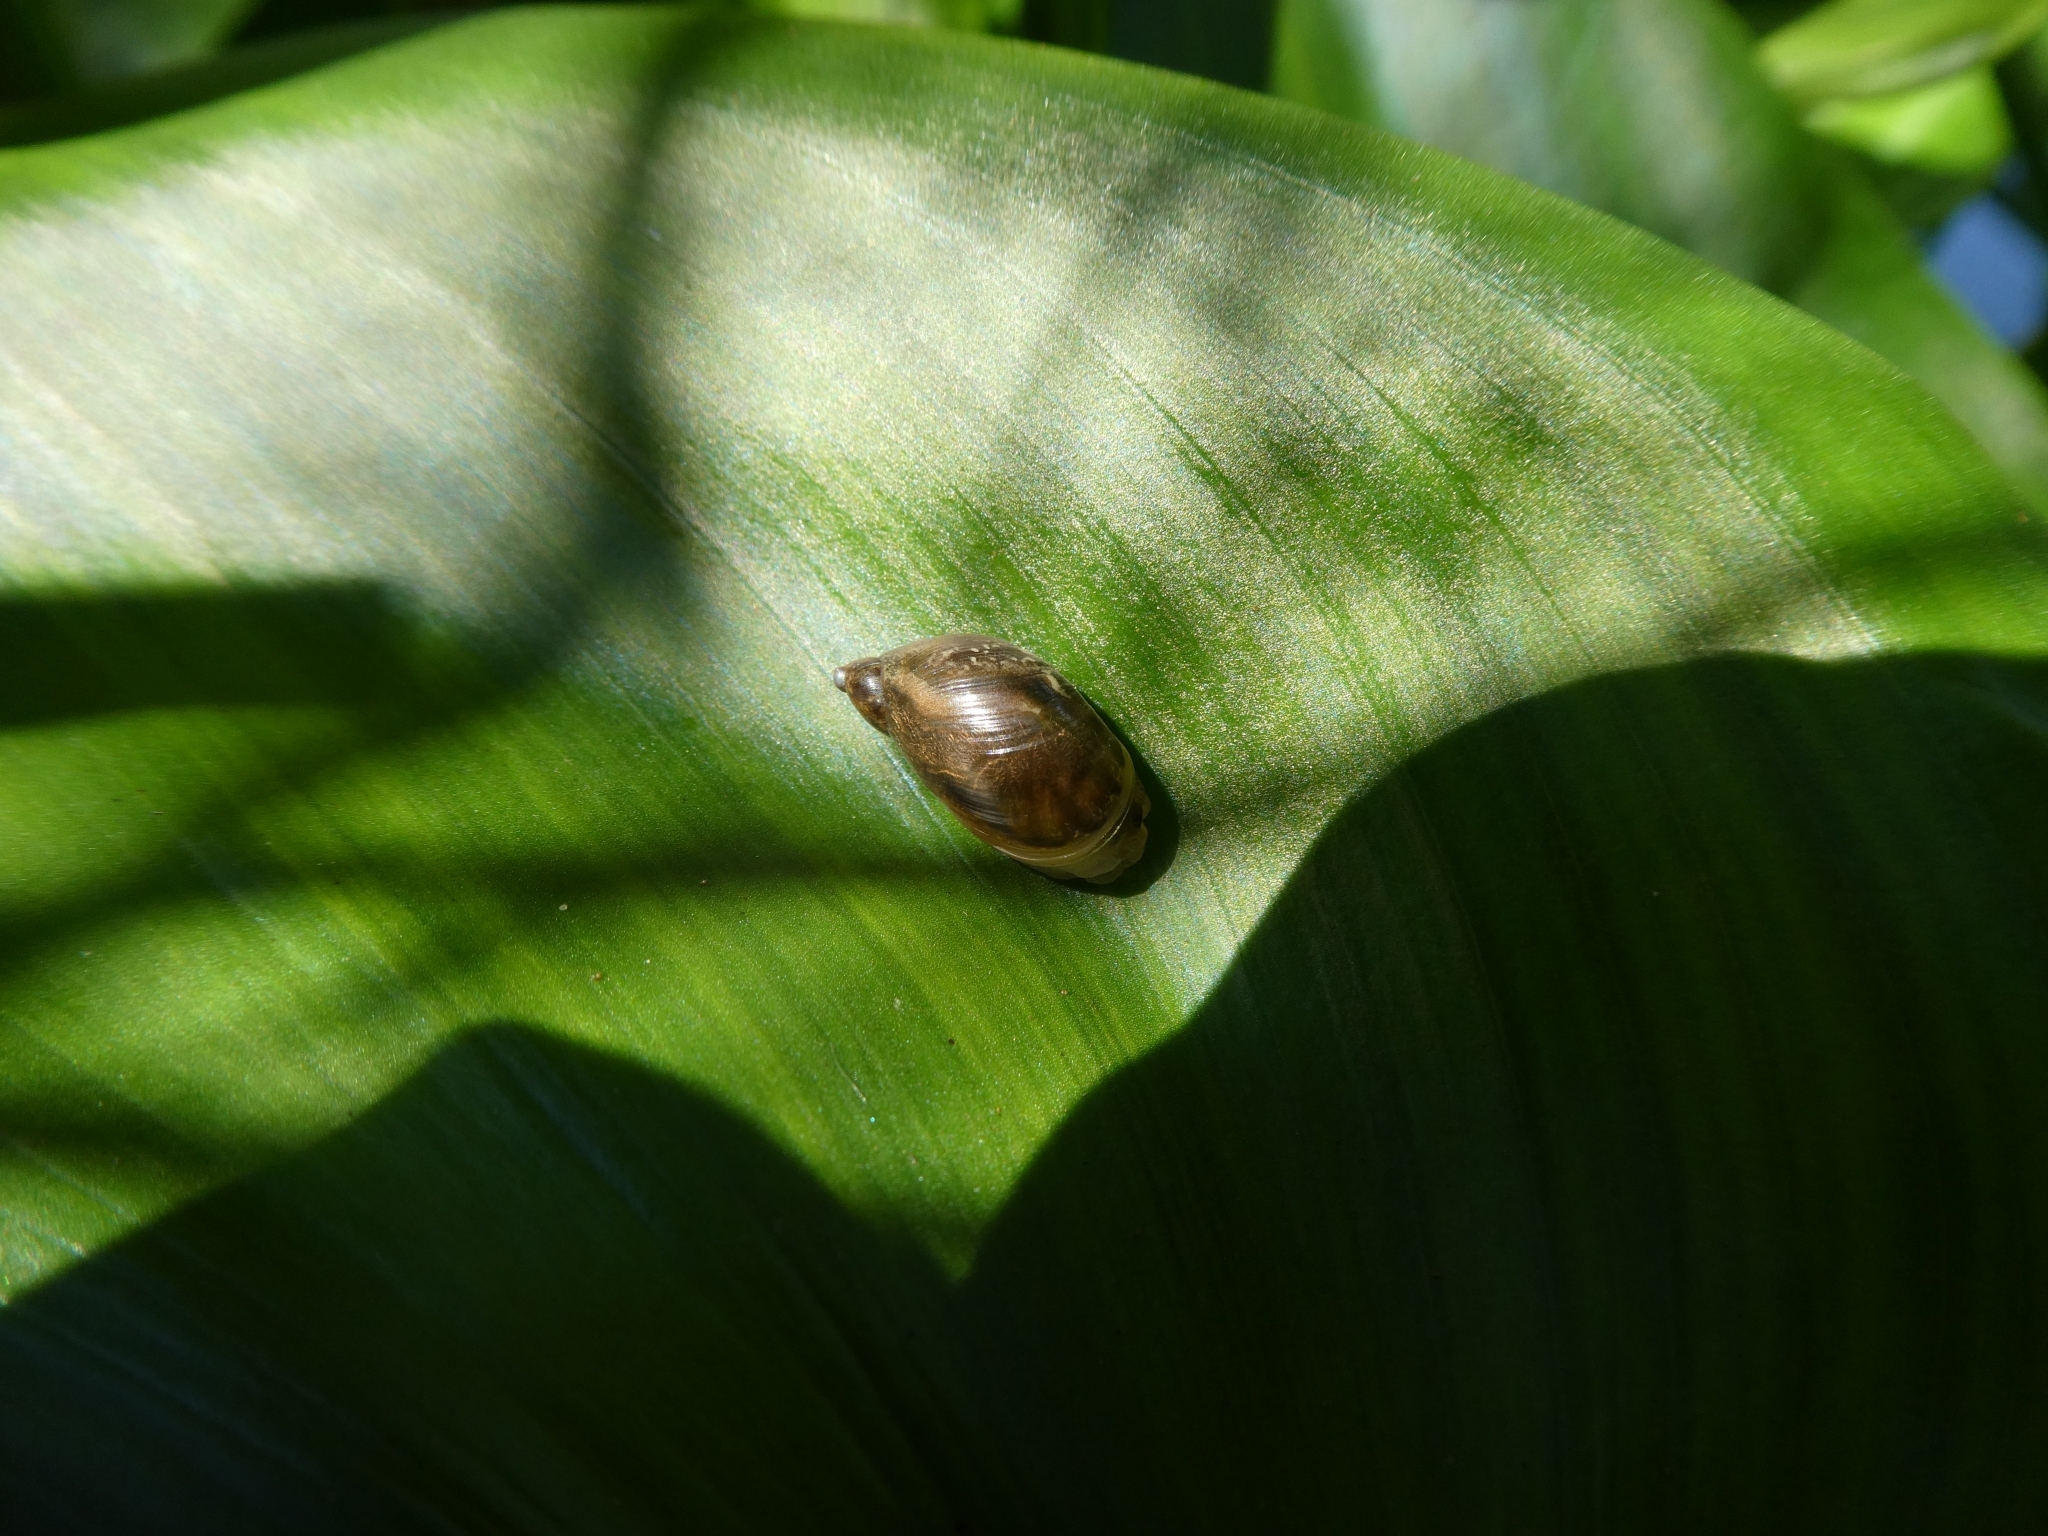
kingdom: Animalia
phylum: Mollusca
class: Gastropoda
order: Stylommatophora
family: Succineidae
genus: Succinea
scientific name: Succinea putris
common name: European ambersnail
